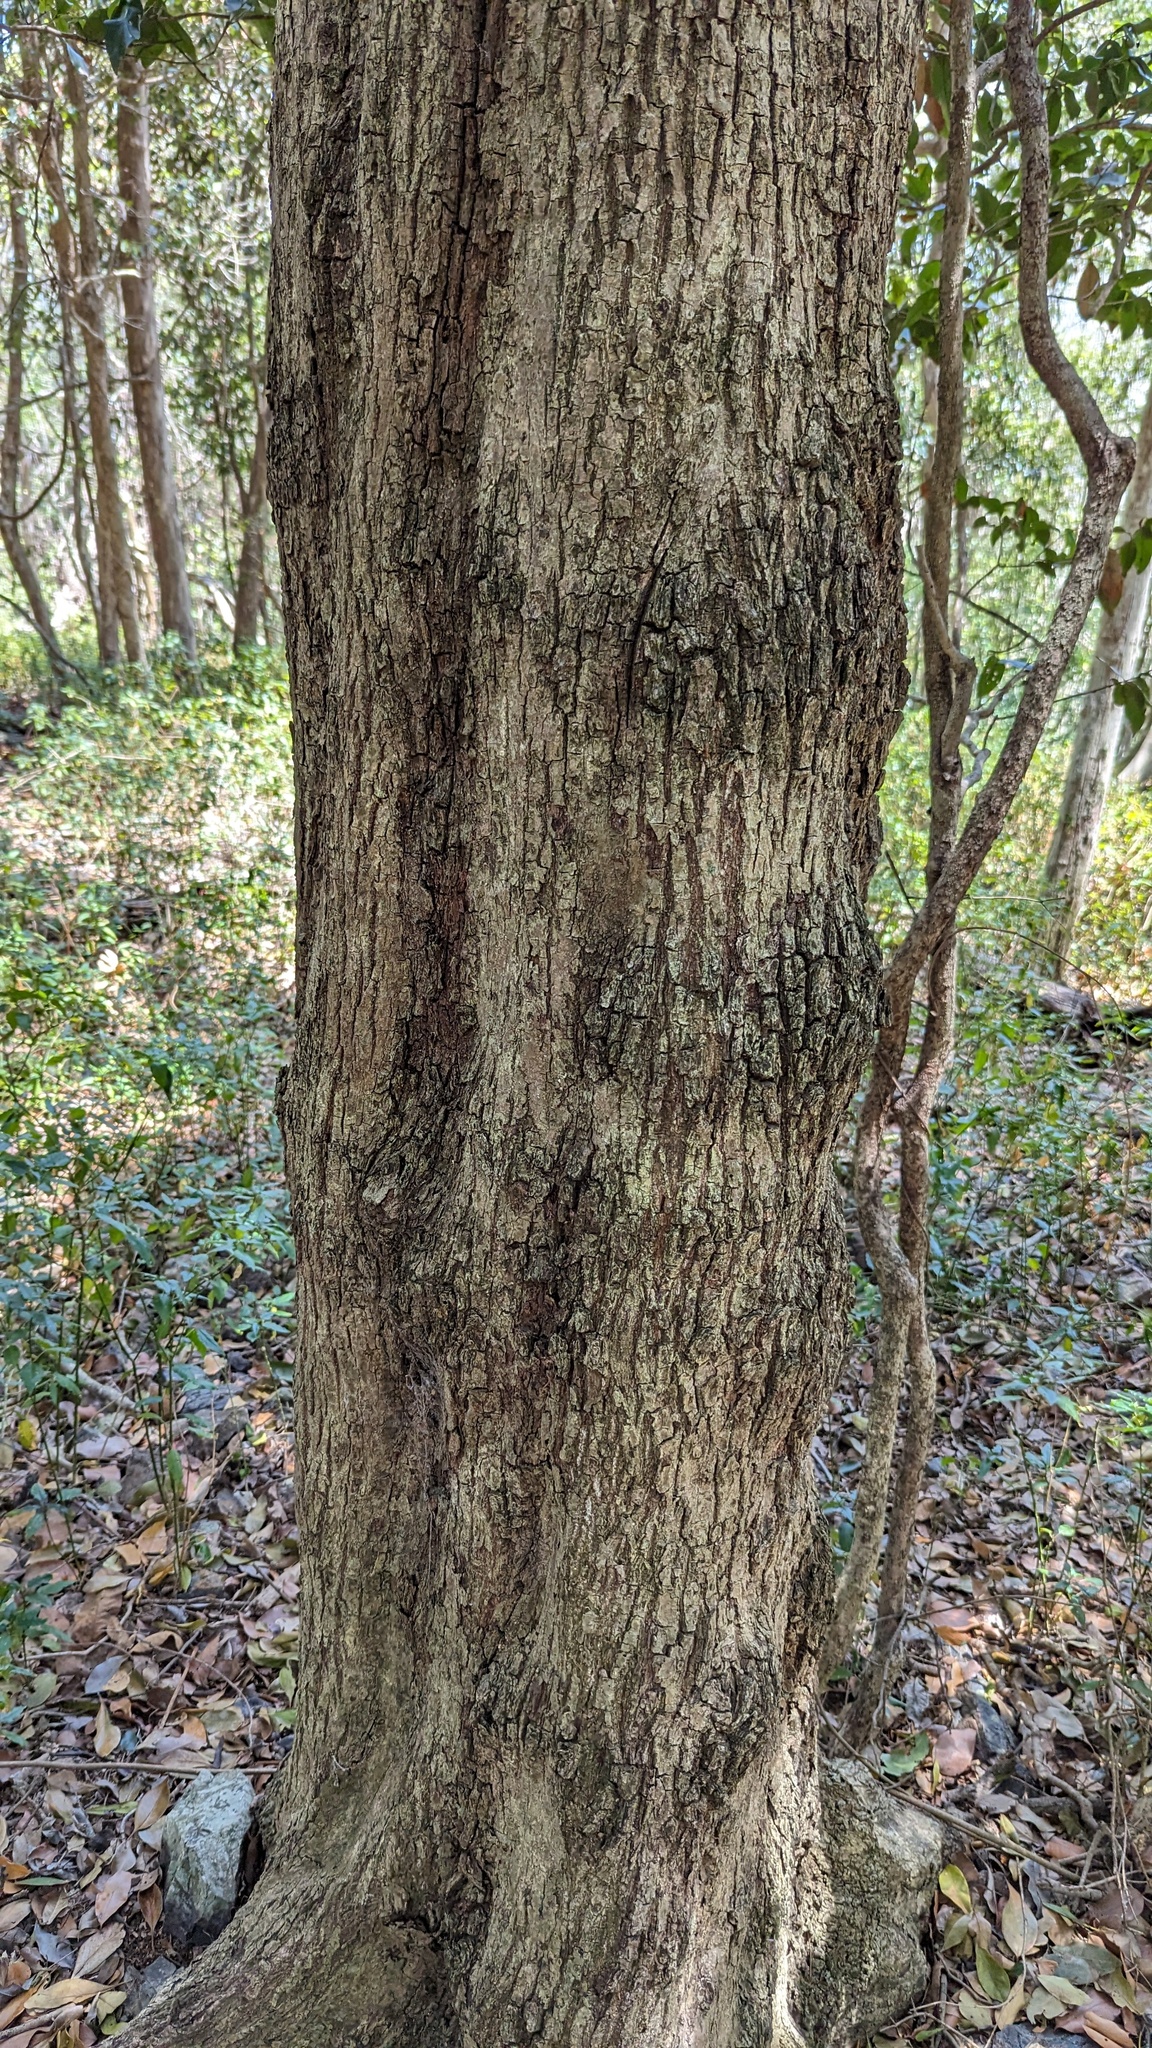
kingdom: Plantae
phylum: Tracheophyta
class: Magnoliopsida
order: Ericales
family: Sapotaceae
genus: Planchonella
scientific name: Planchonella eerwah
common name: Shiny-leaf coondoo
